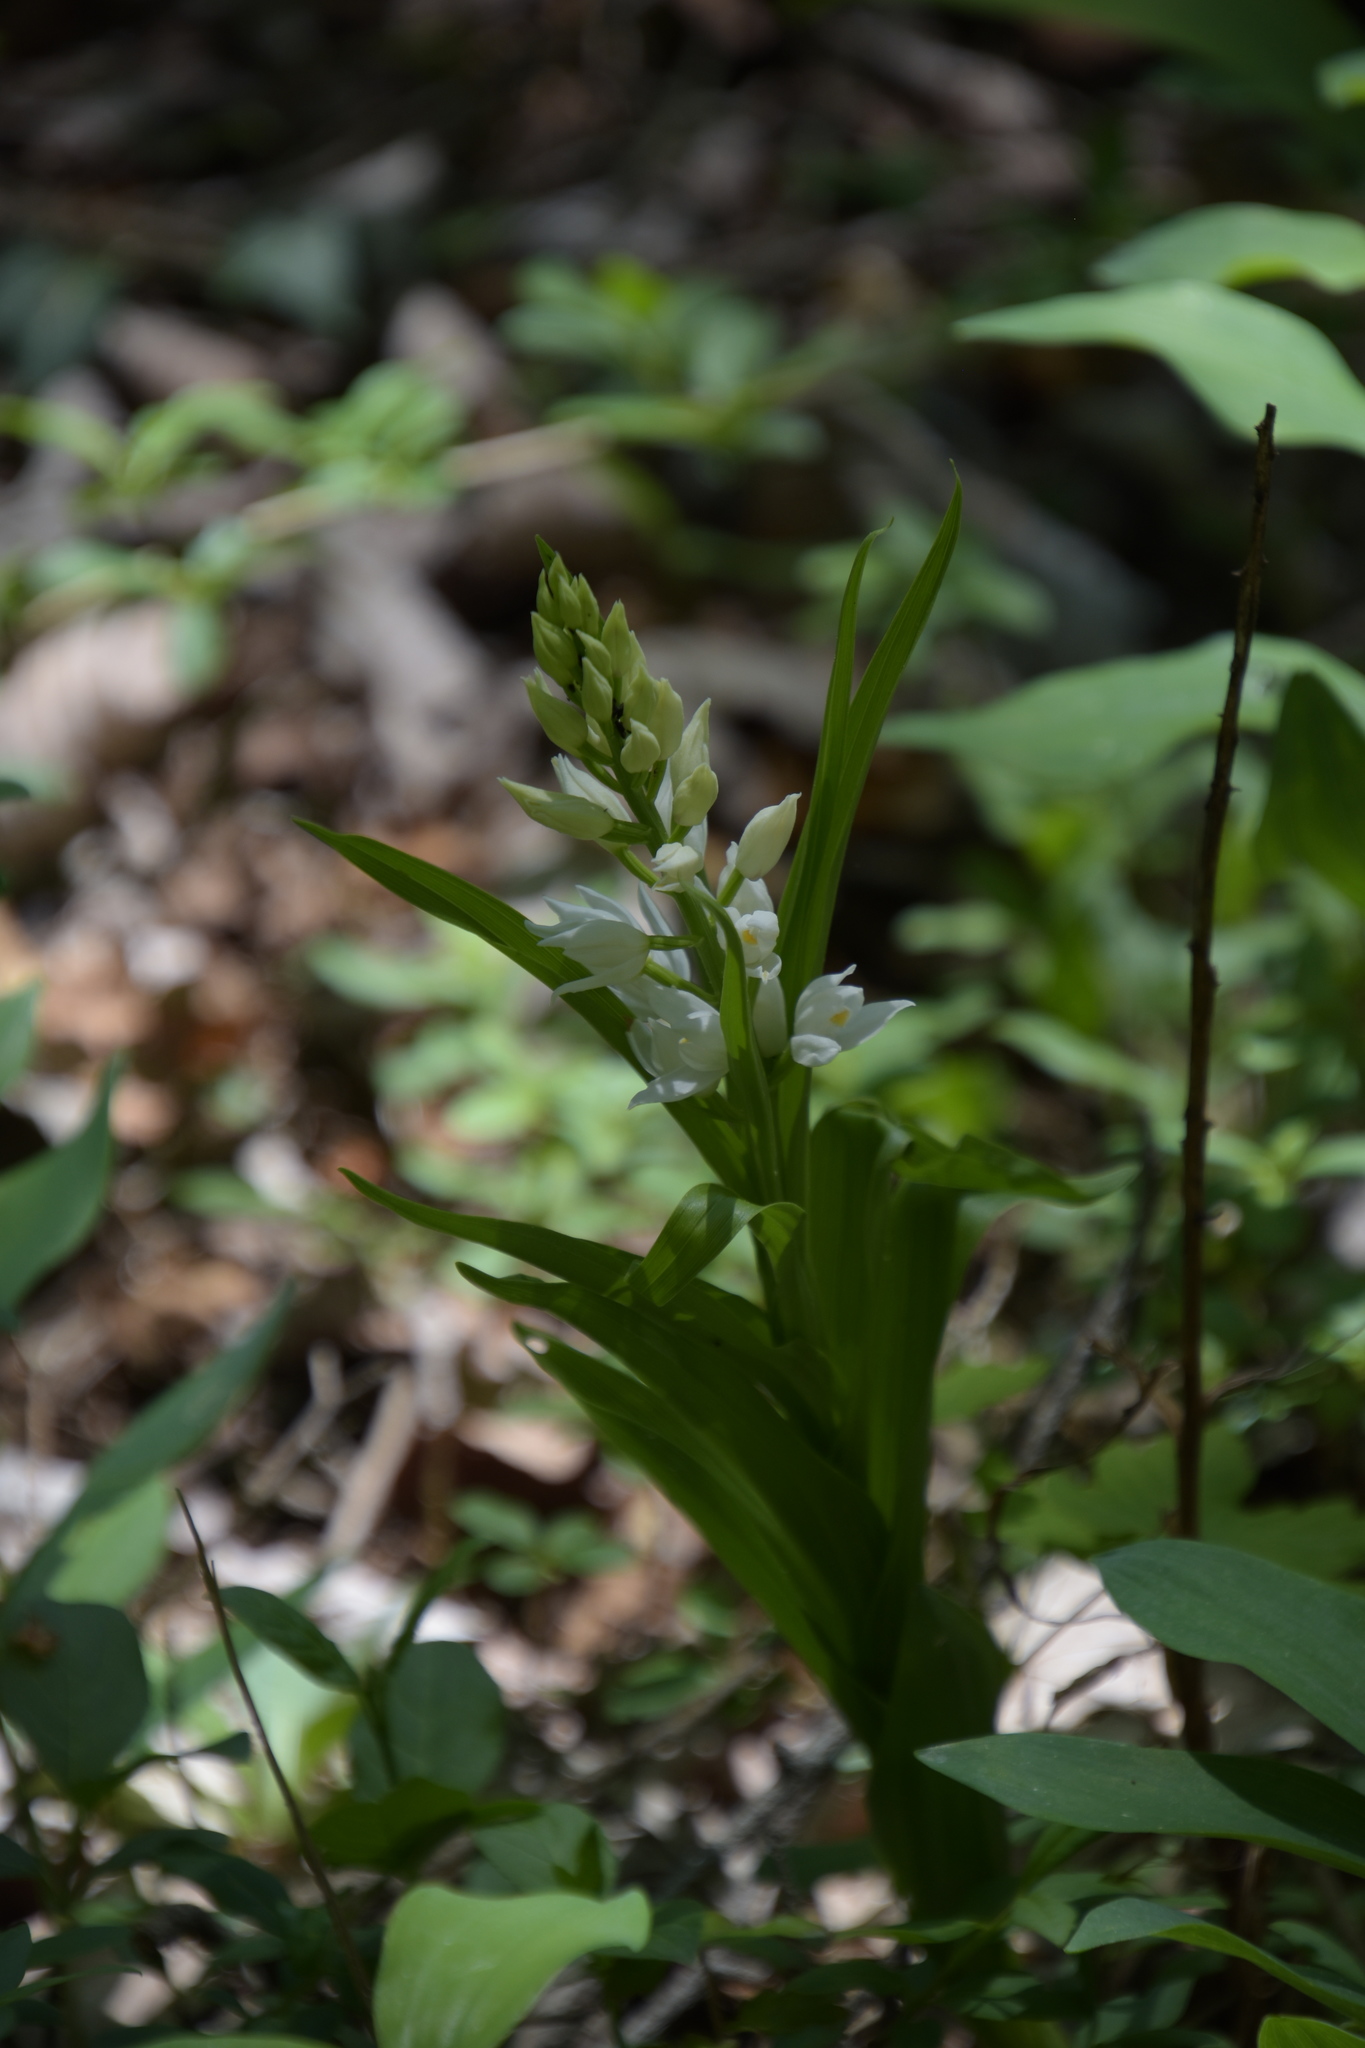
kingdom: Plantae
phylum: Tracheophyta
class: Liliopsida
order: Asparagales
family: Orchidaceae
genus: Cephalanthera
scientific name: Cephalanthera longifolia
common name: Narrow-leaved helleborine
